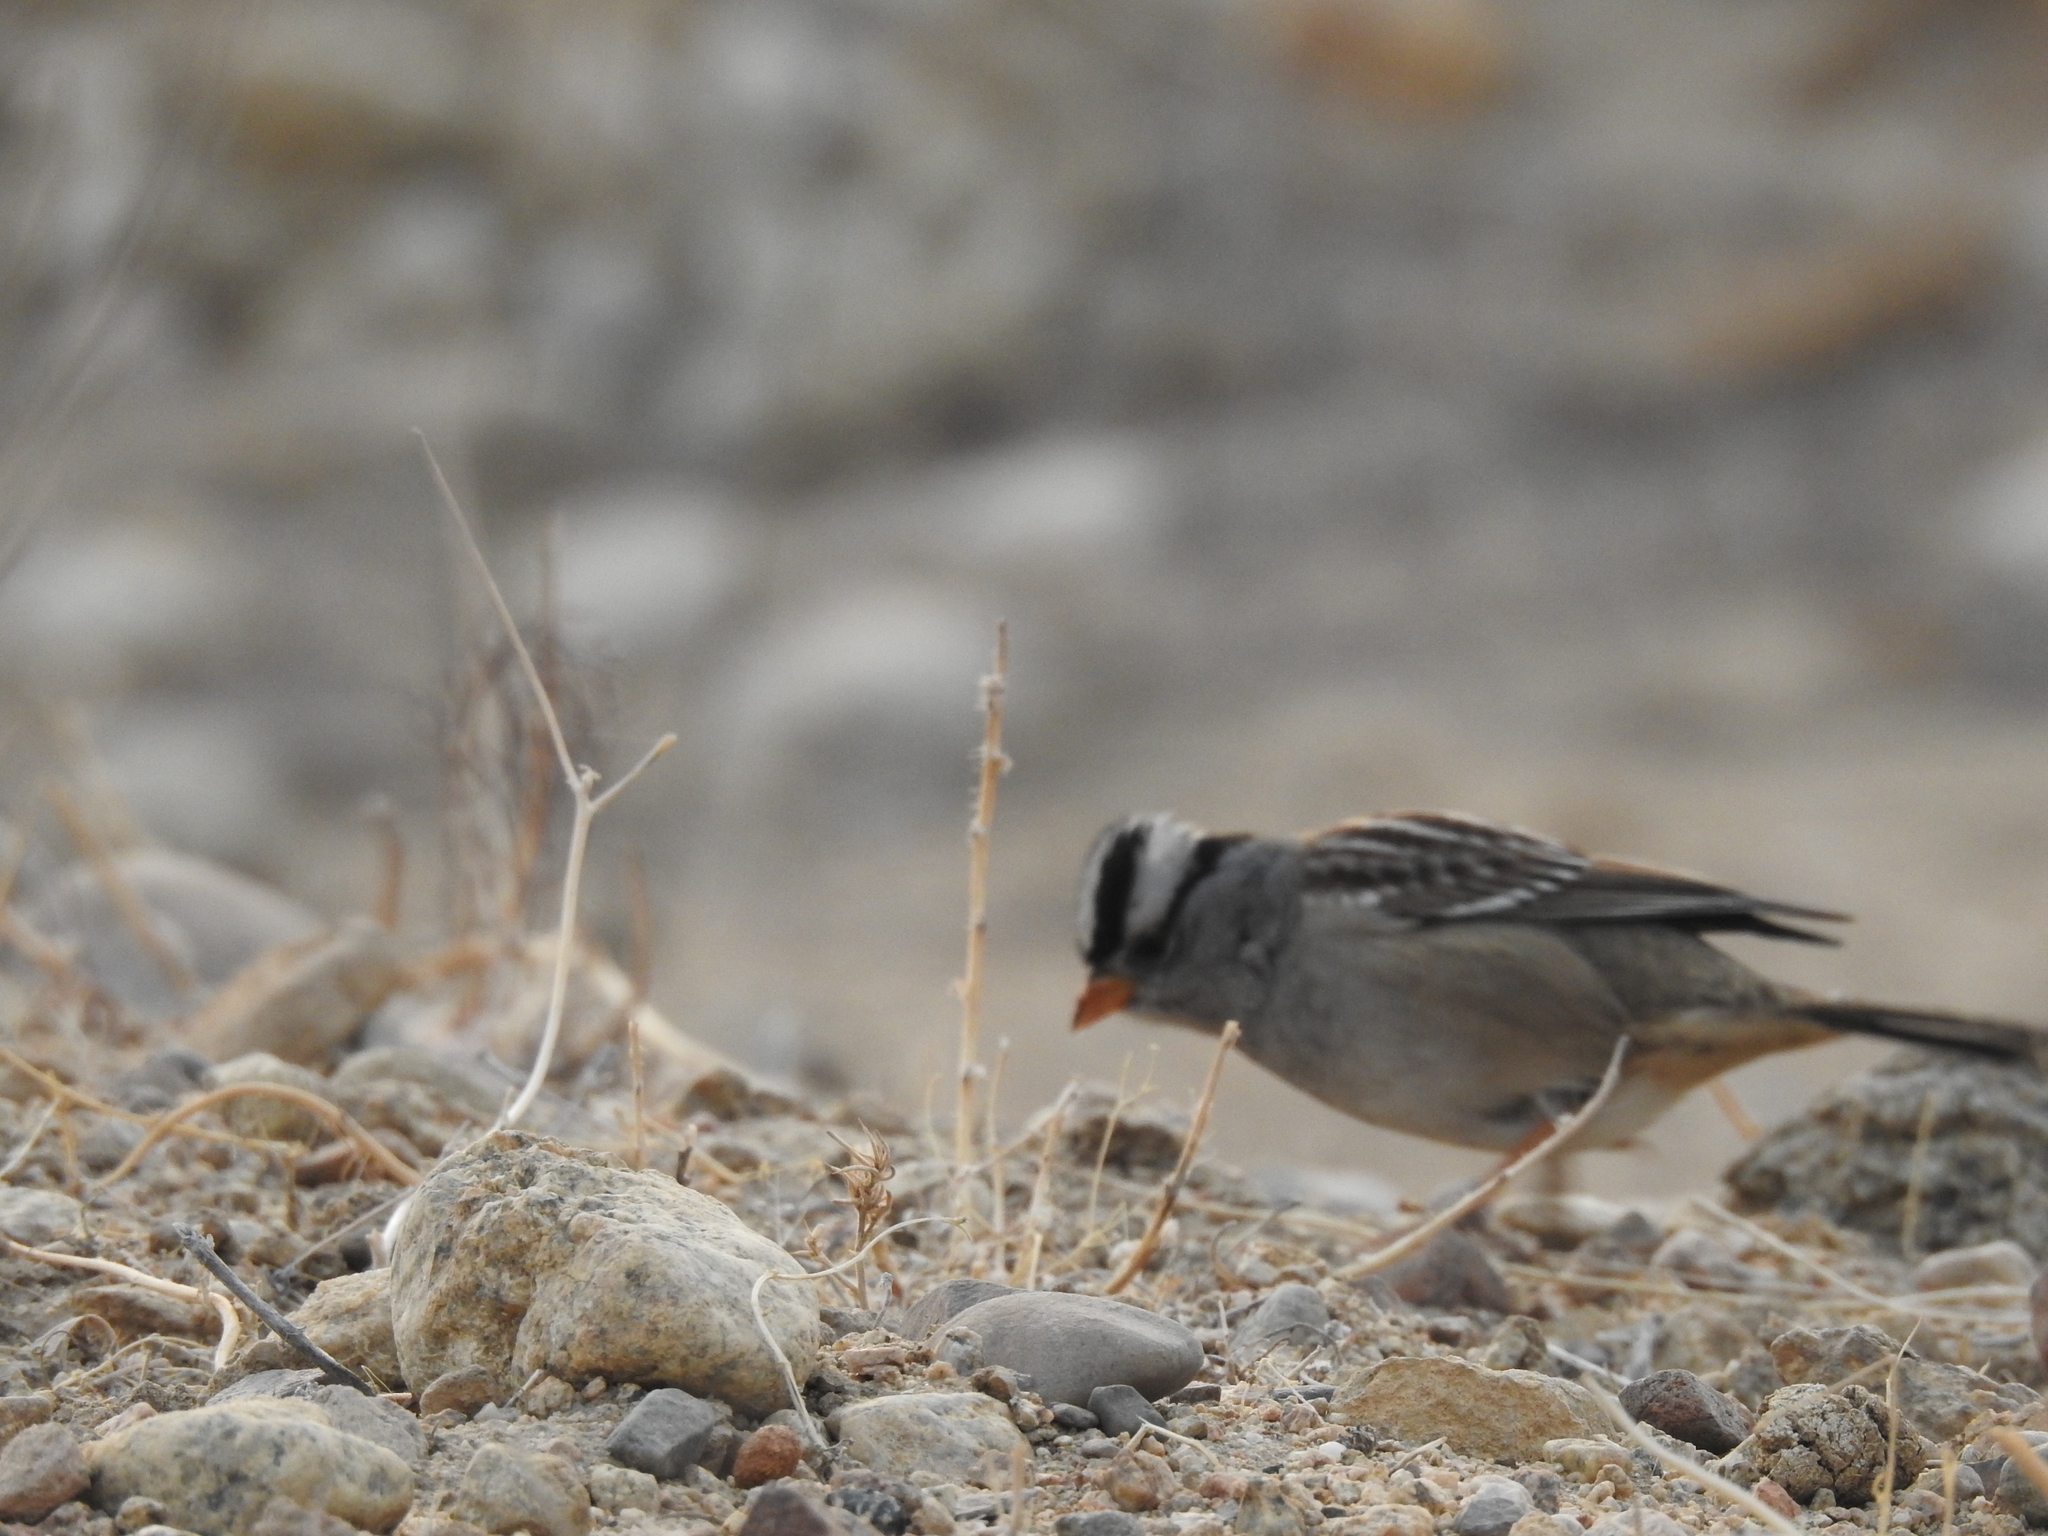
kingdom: Animalia
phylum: Chordata
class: Aves
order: Passeriformes
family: Passerellidae
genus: Zonotrichia
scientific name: Zonotrichia leucophrys
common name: White-crowned sparrow
